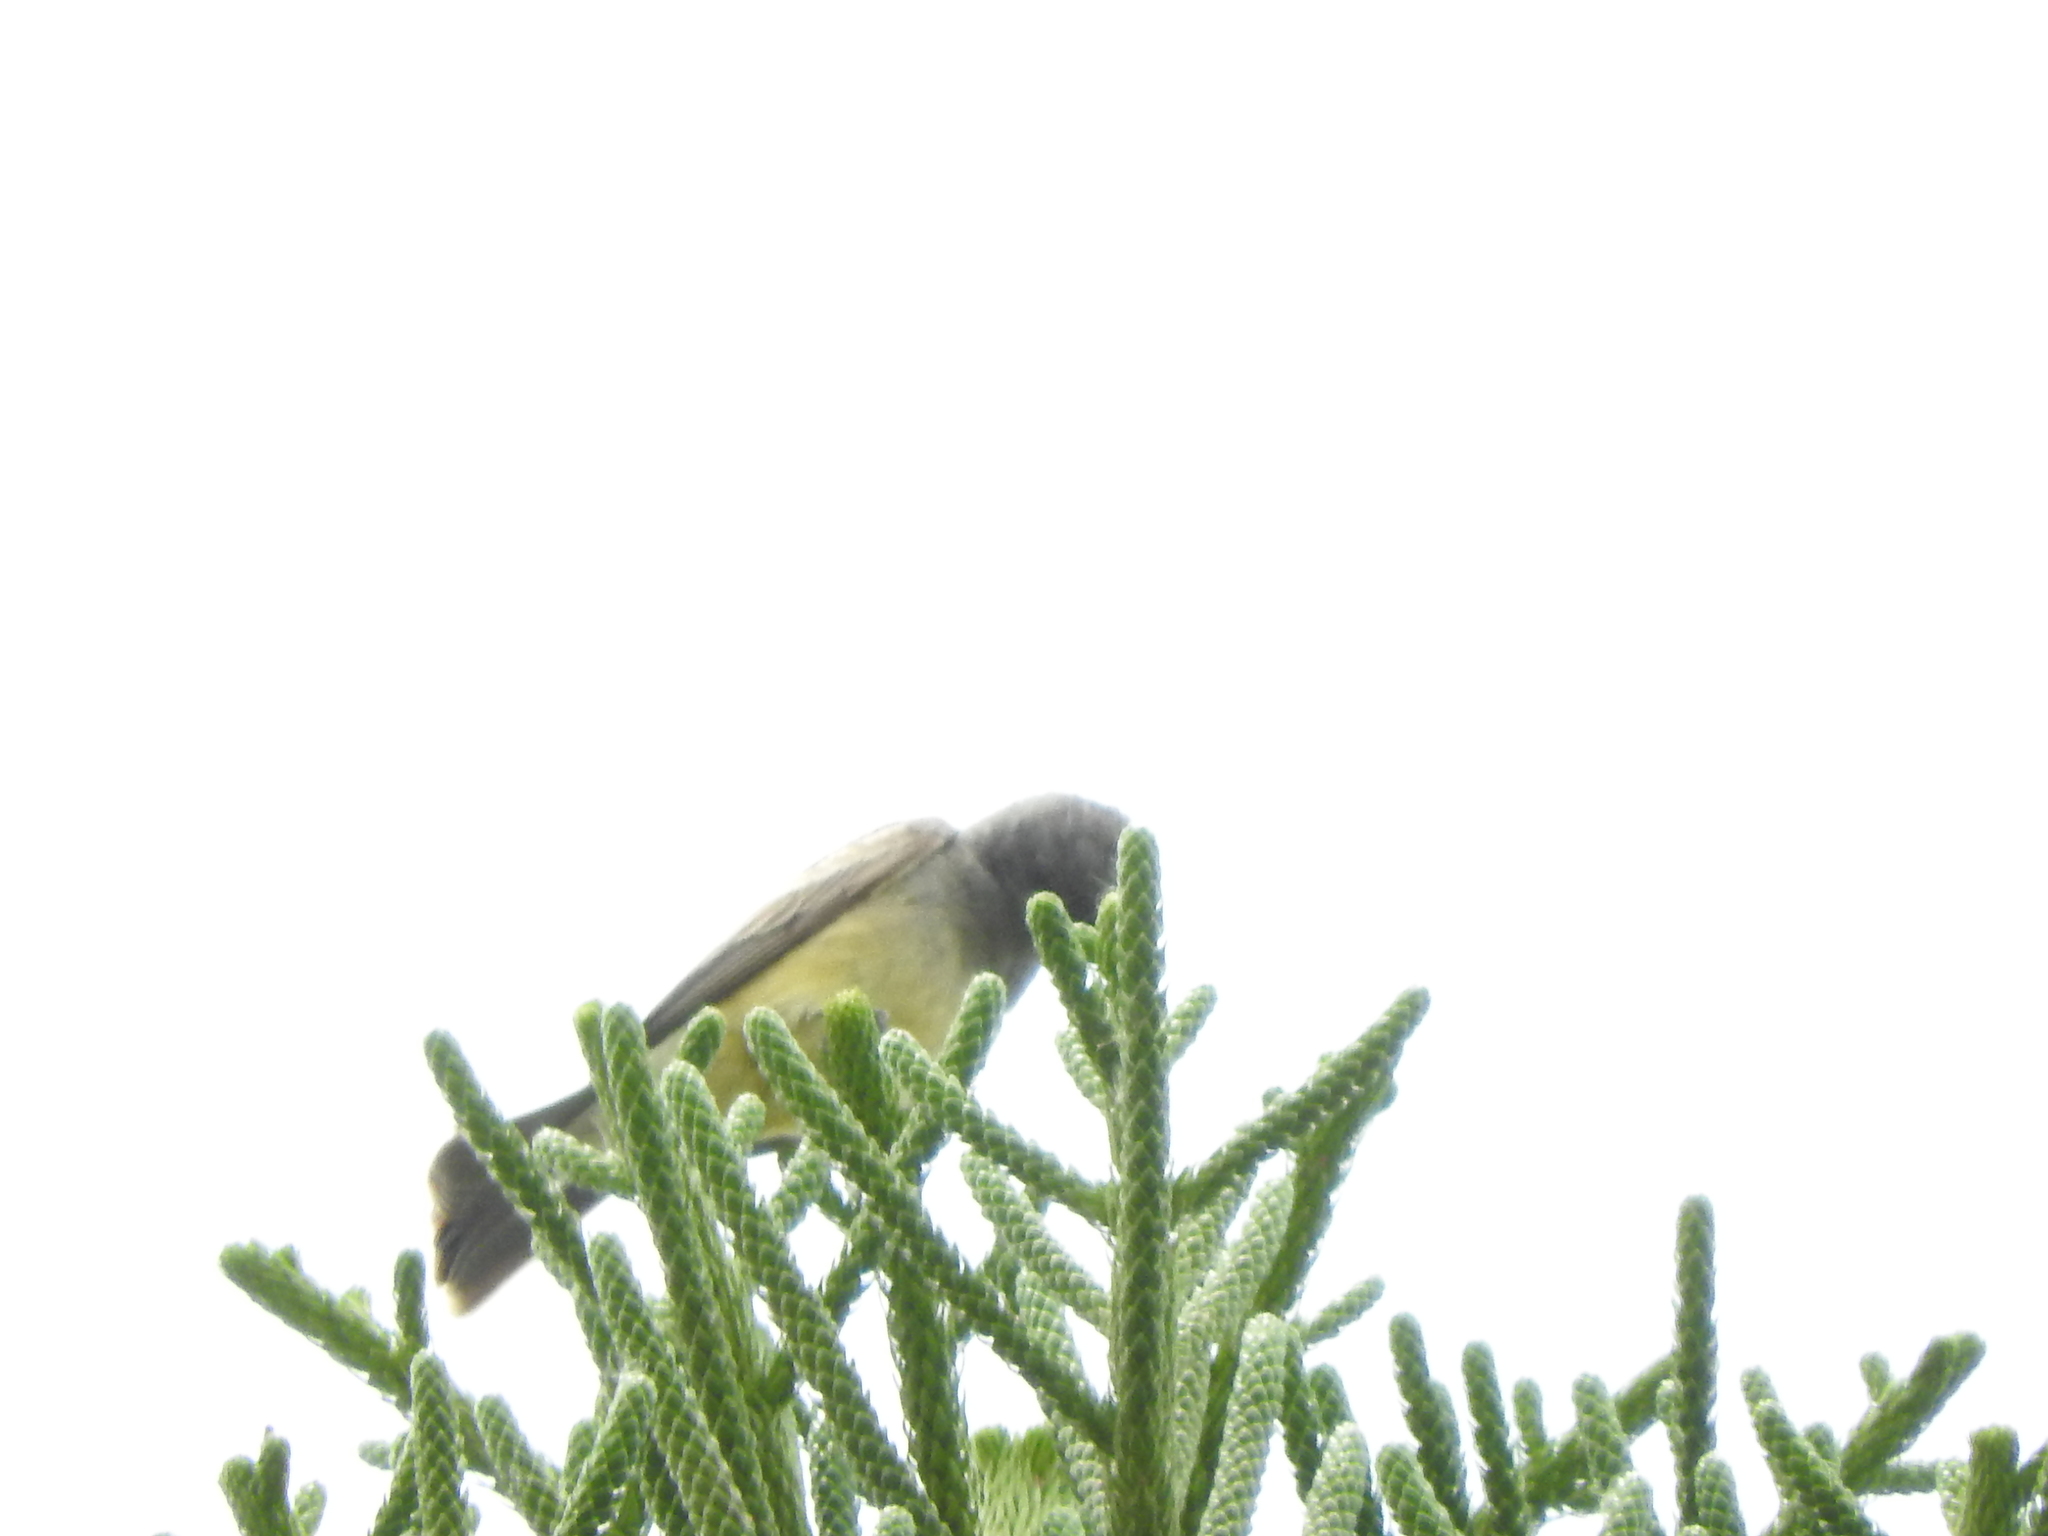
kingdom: Animalia
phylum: Chordata
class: Aves
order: Passeriformes
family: Tyrannidae
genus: Tyrannus
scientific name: Tyrannus vociferans
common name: Cassin's kingbird
